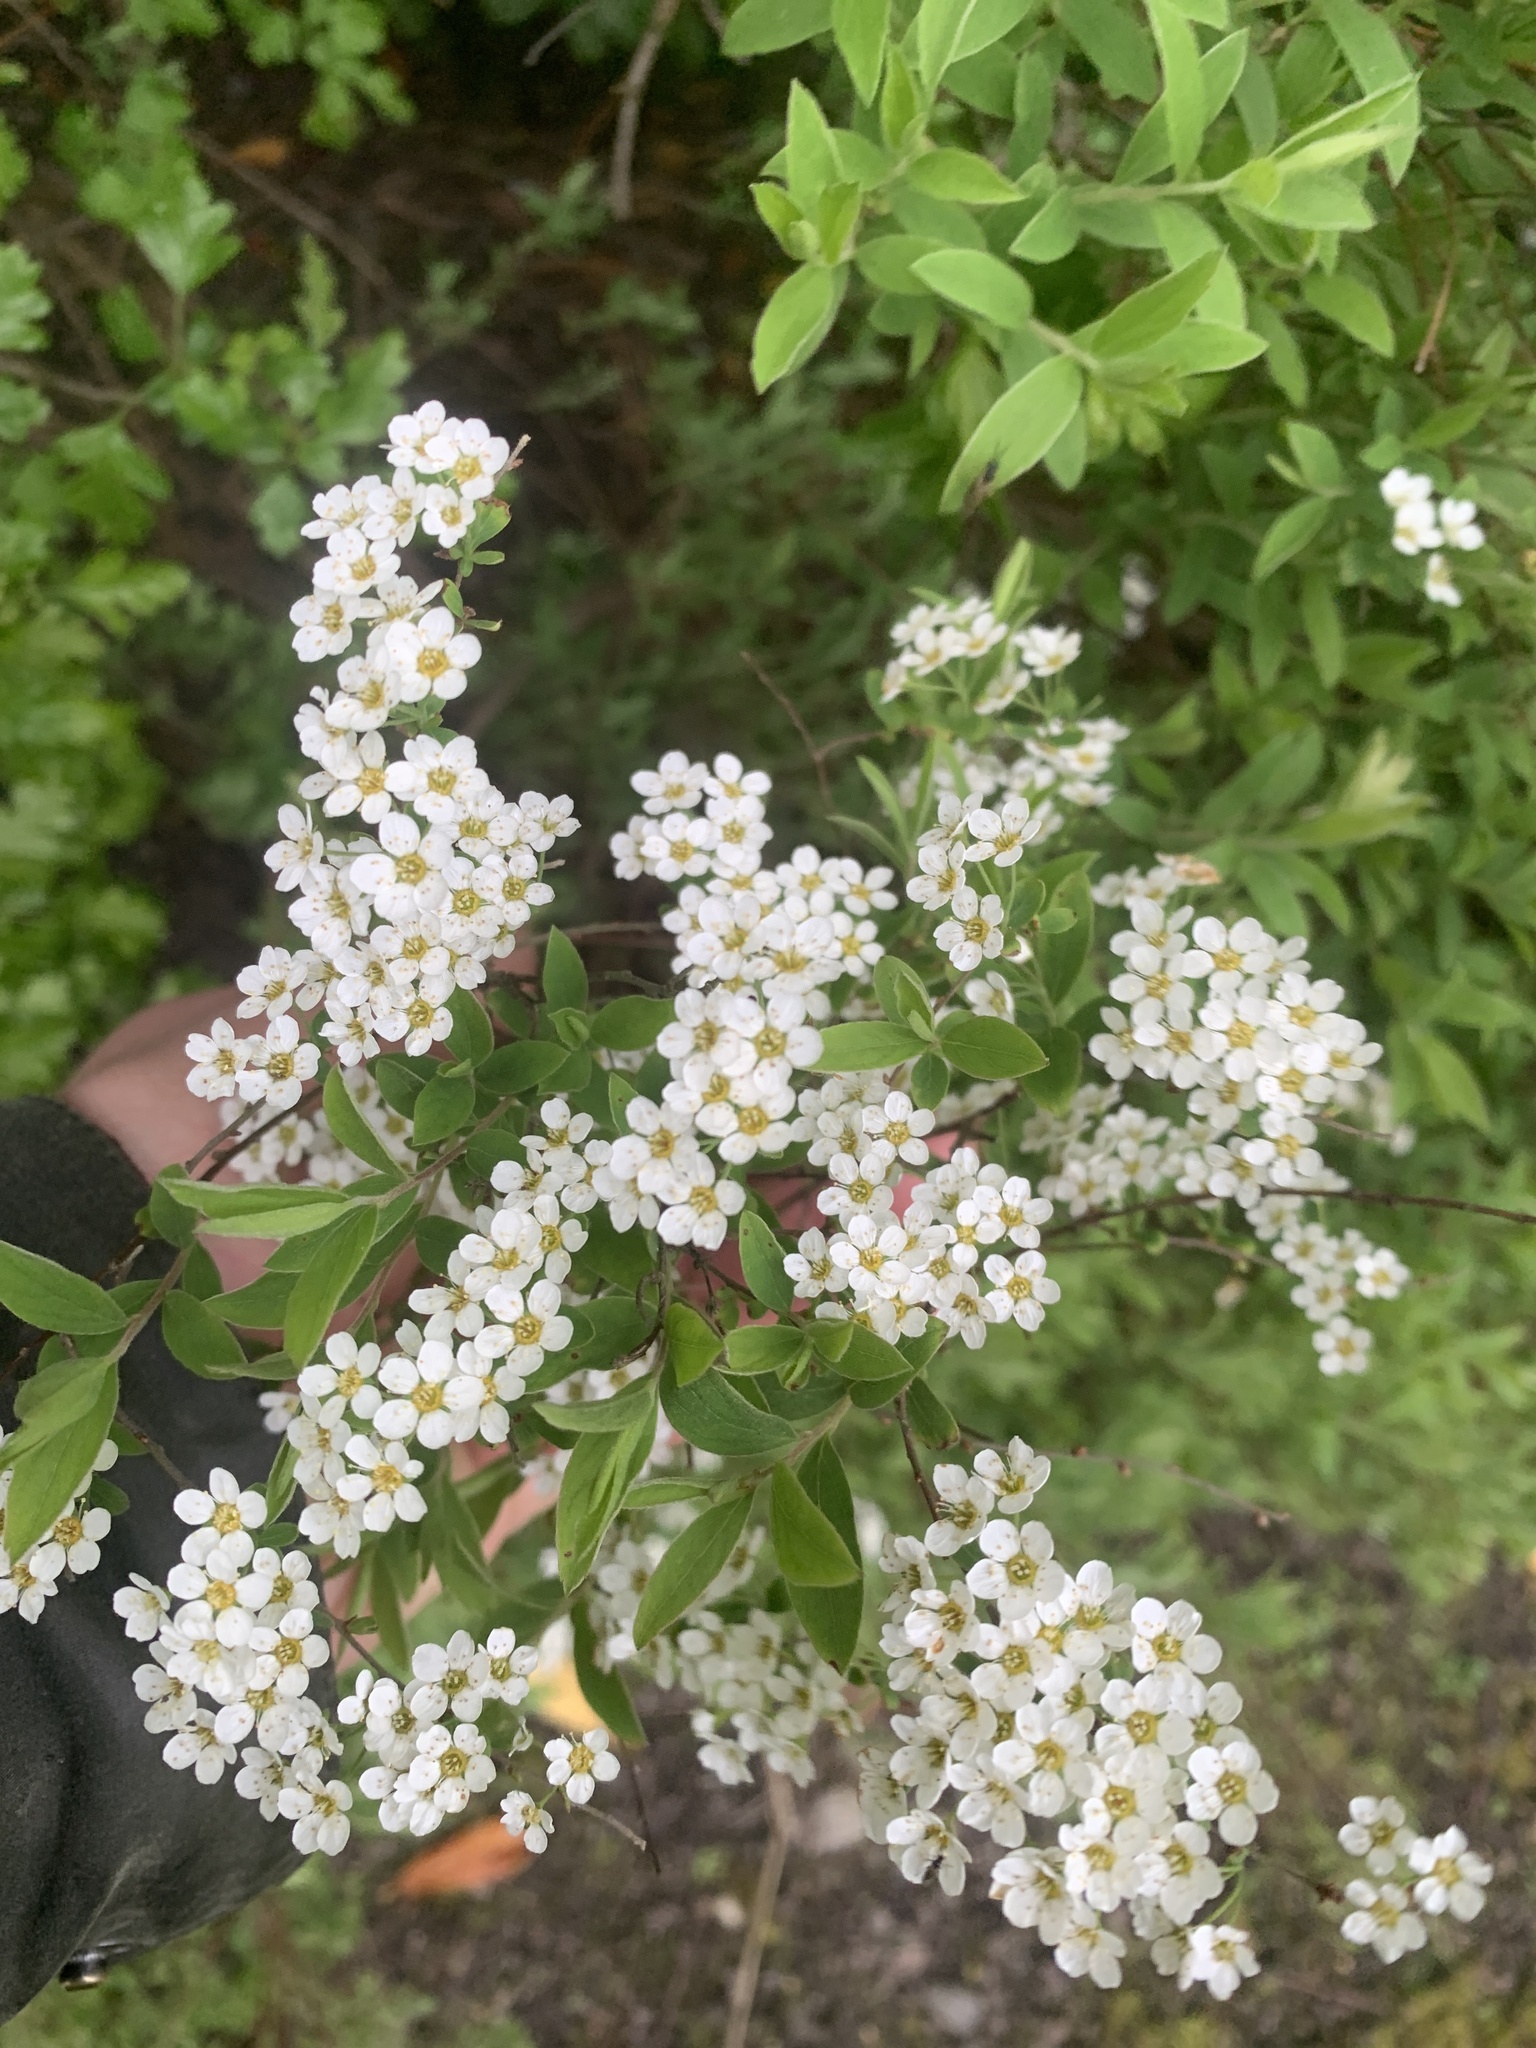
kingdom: Plantae
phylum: Tracheophyta
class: Magnoliopsida
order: Rosales
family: Rosaceae
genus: Spiraea
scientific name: Spiraea cantoniensis
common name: Reeves' meadowsweet
